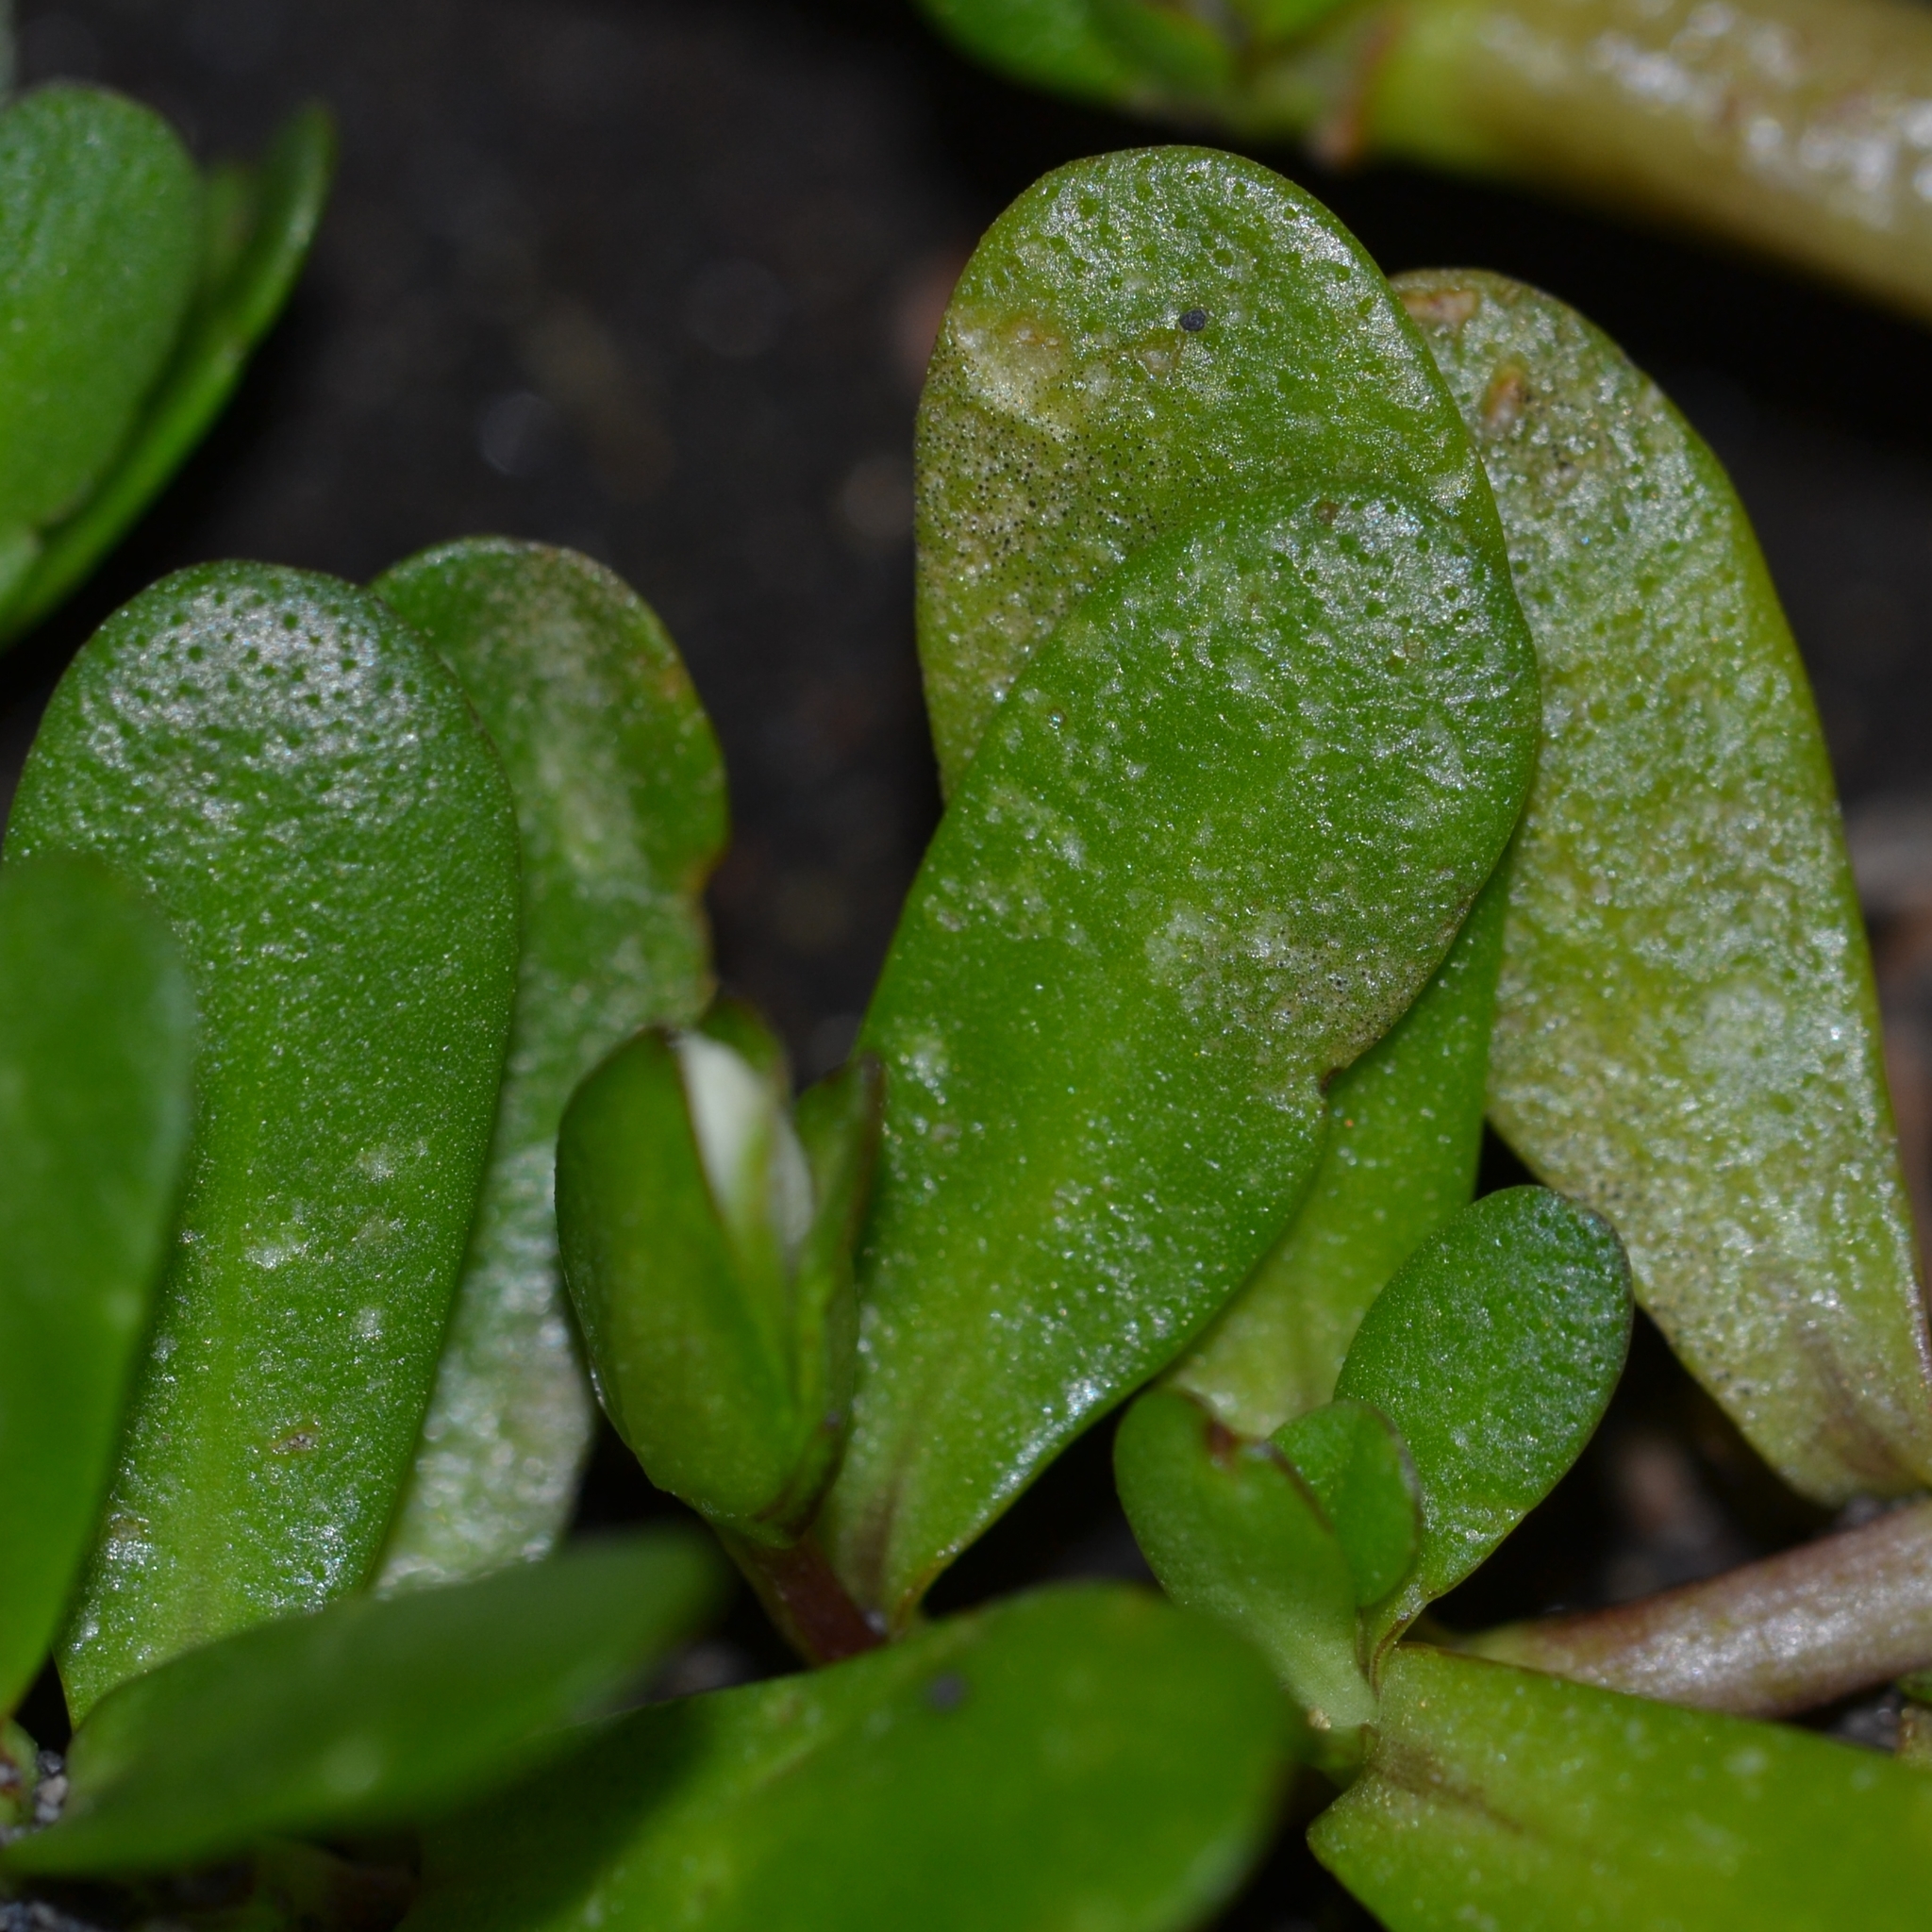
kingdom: Plantae
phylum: Tracheophyta
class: Magnoliopsida
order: Lamiales
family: Plantaginaceae
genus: Bacopa
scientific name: Bacopa monnieri
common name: Indian-pennywort
